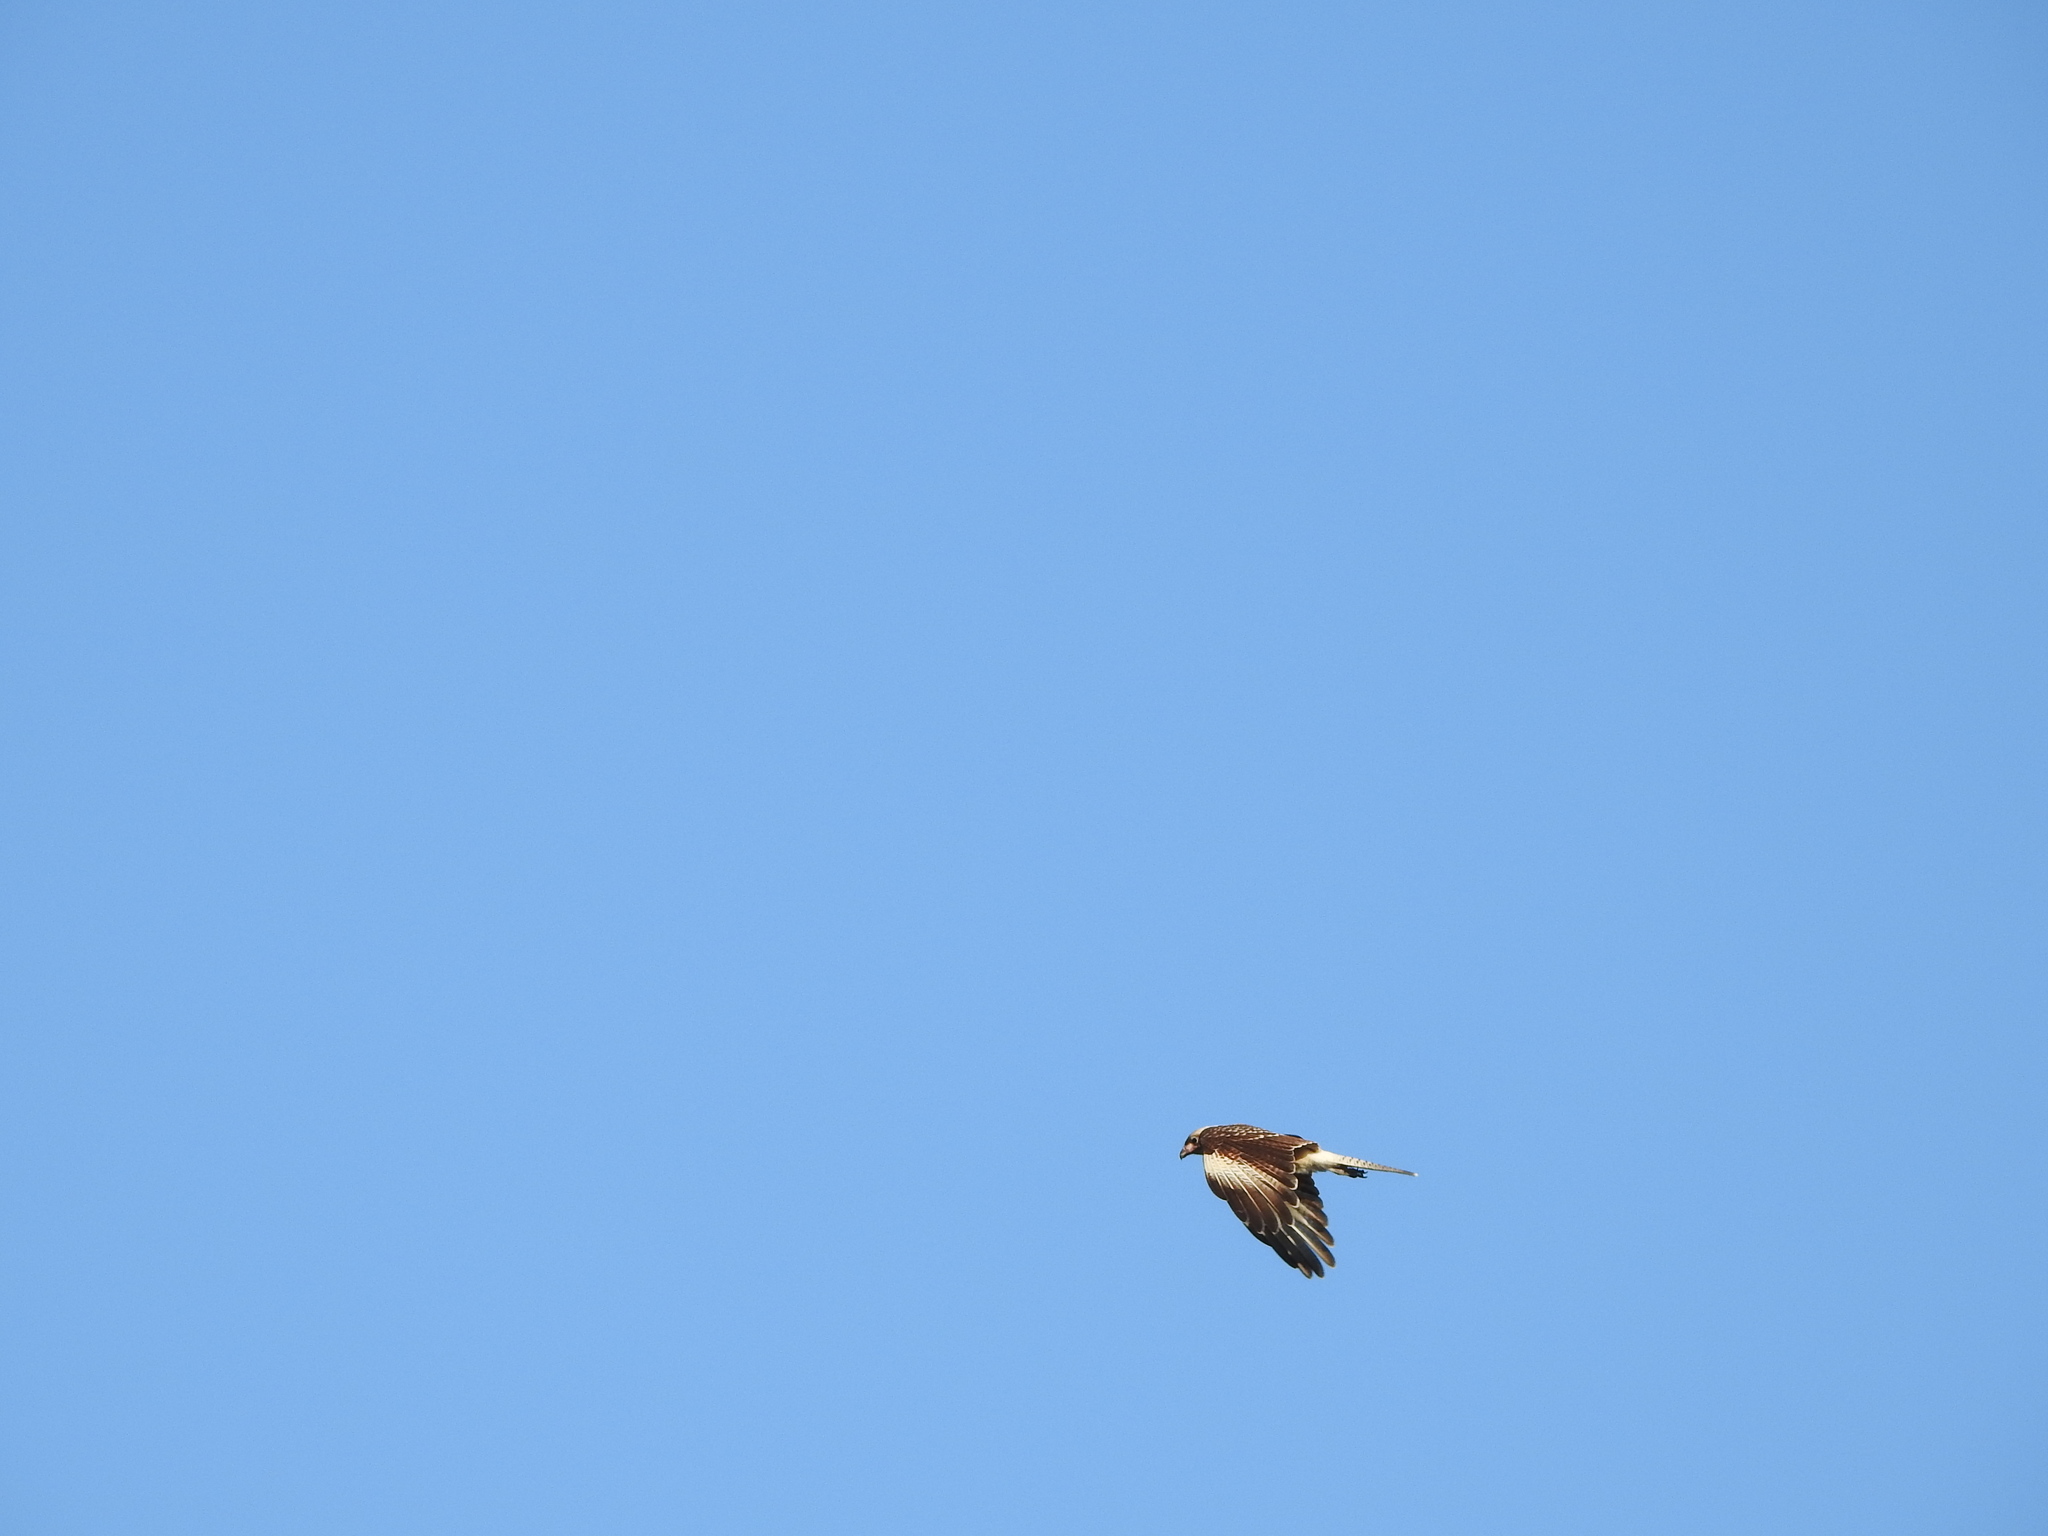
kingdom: Animalia
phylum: Chordata
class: Aves
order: Falconiformes
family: Falconidae
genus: Daptrius
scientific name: Daptrius
